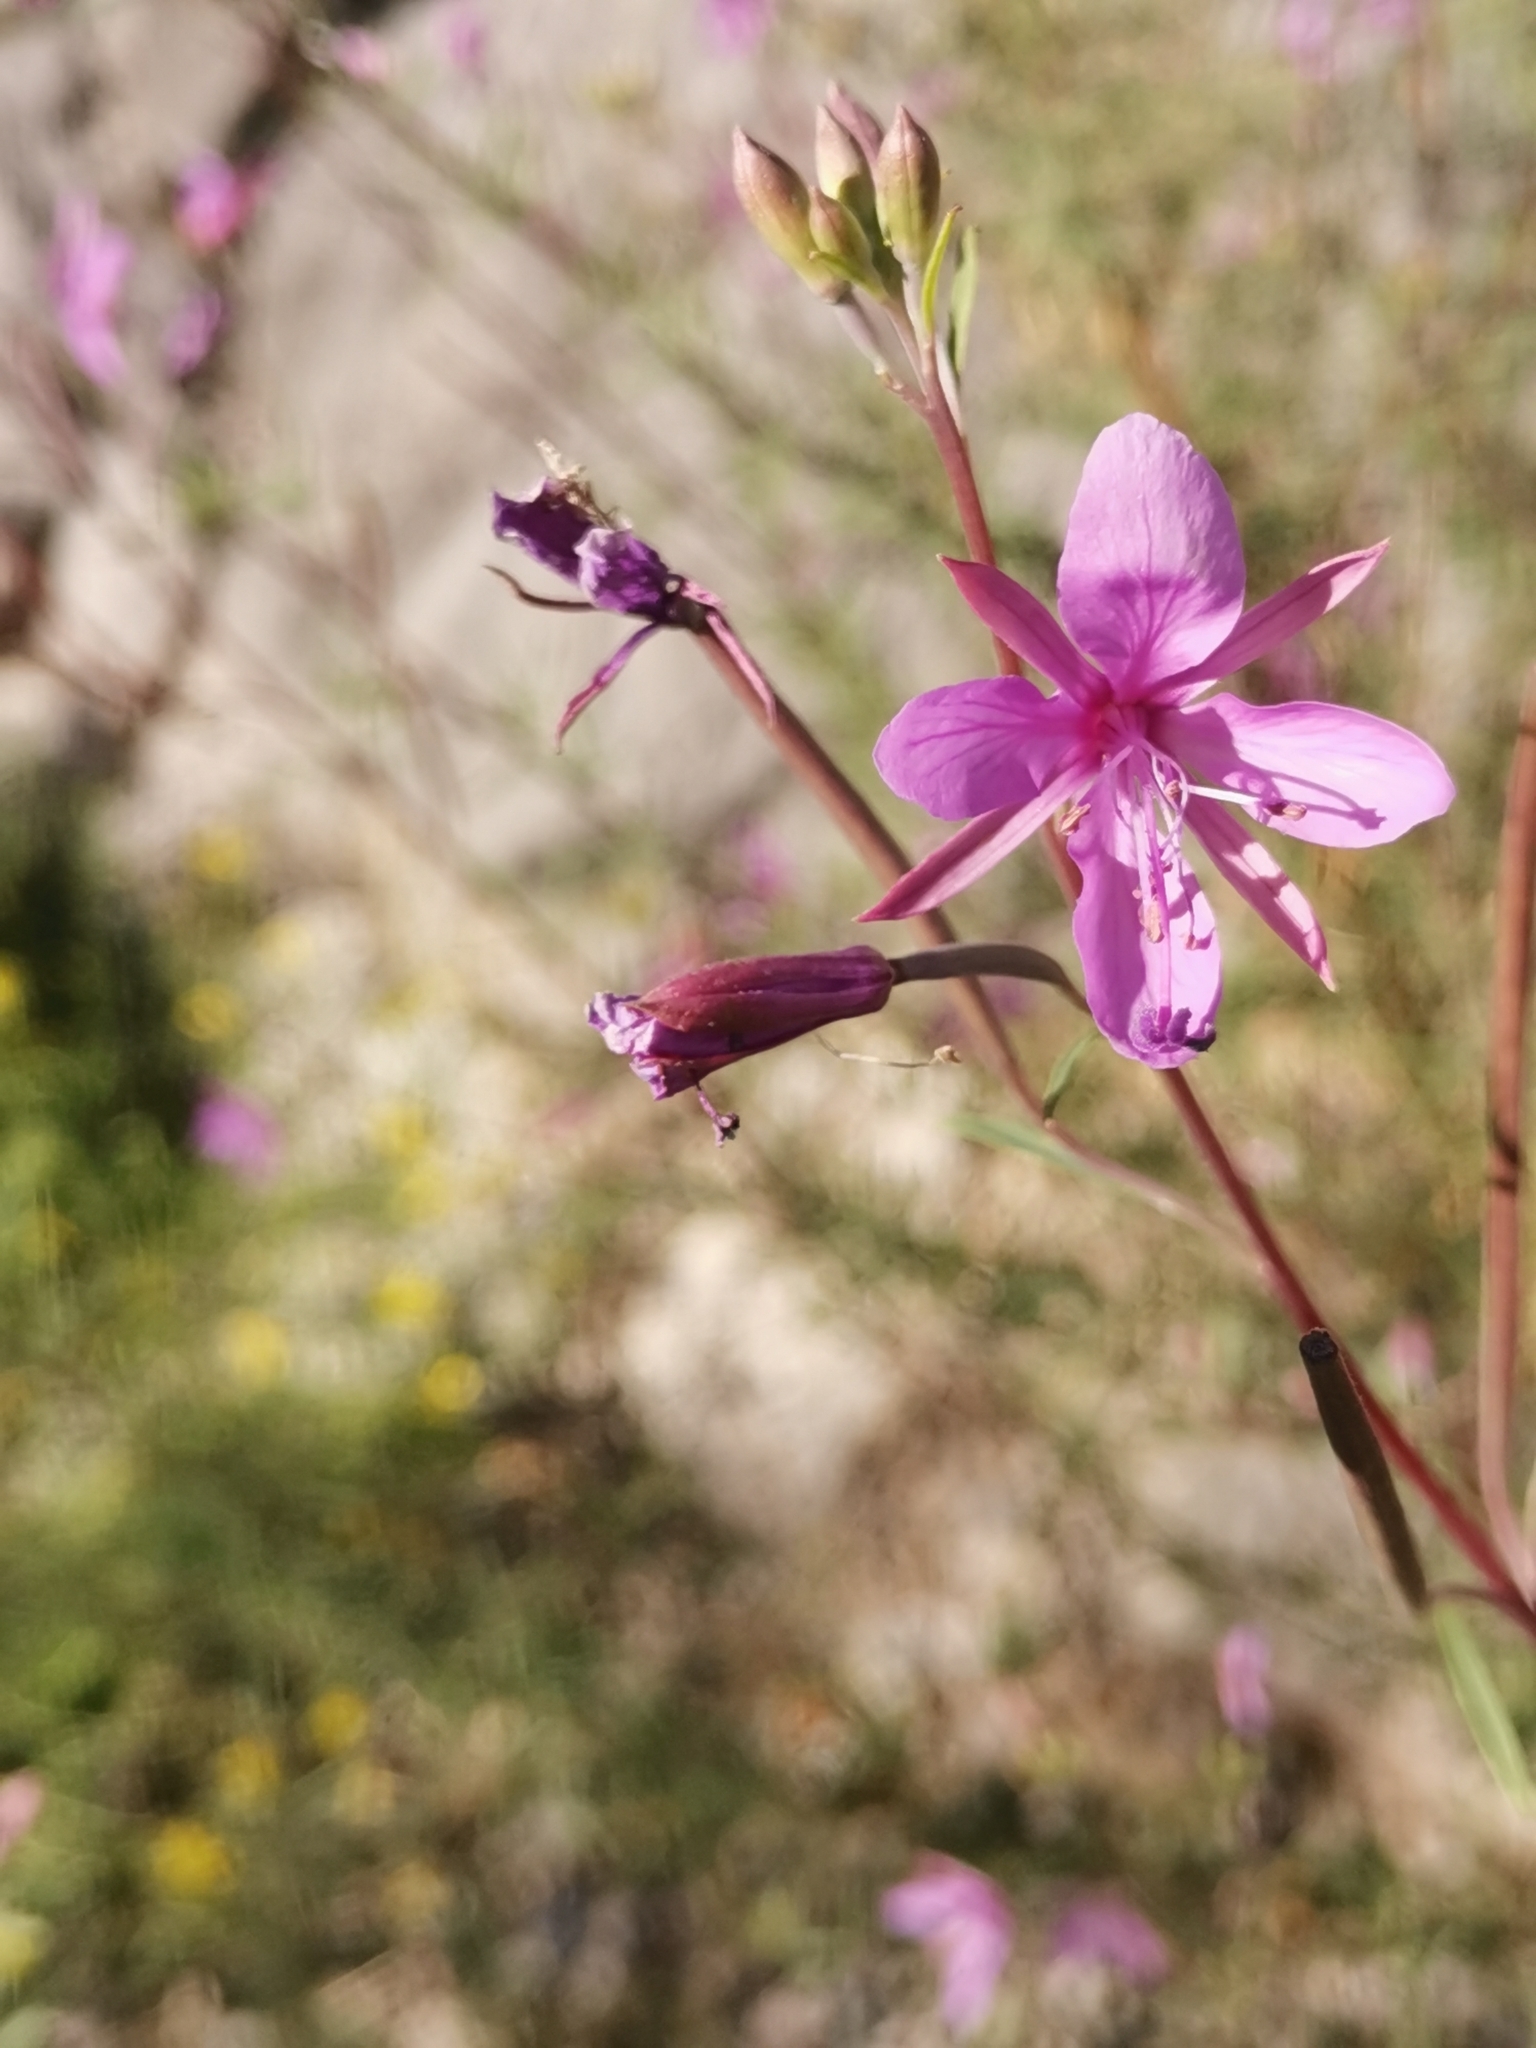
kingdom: Plantae
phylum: Tracheophyta
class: Magnoliopsida
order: Myrtales
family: Onagraceae
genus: Chamaenerion
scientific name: Chamaenerion dodonaei
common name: Rosemary-leaved willowherb
